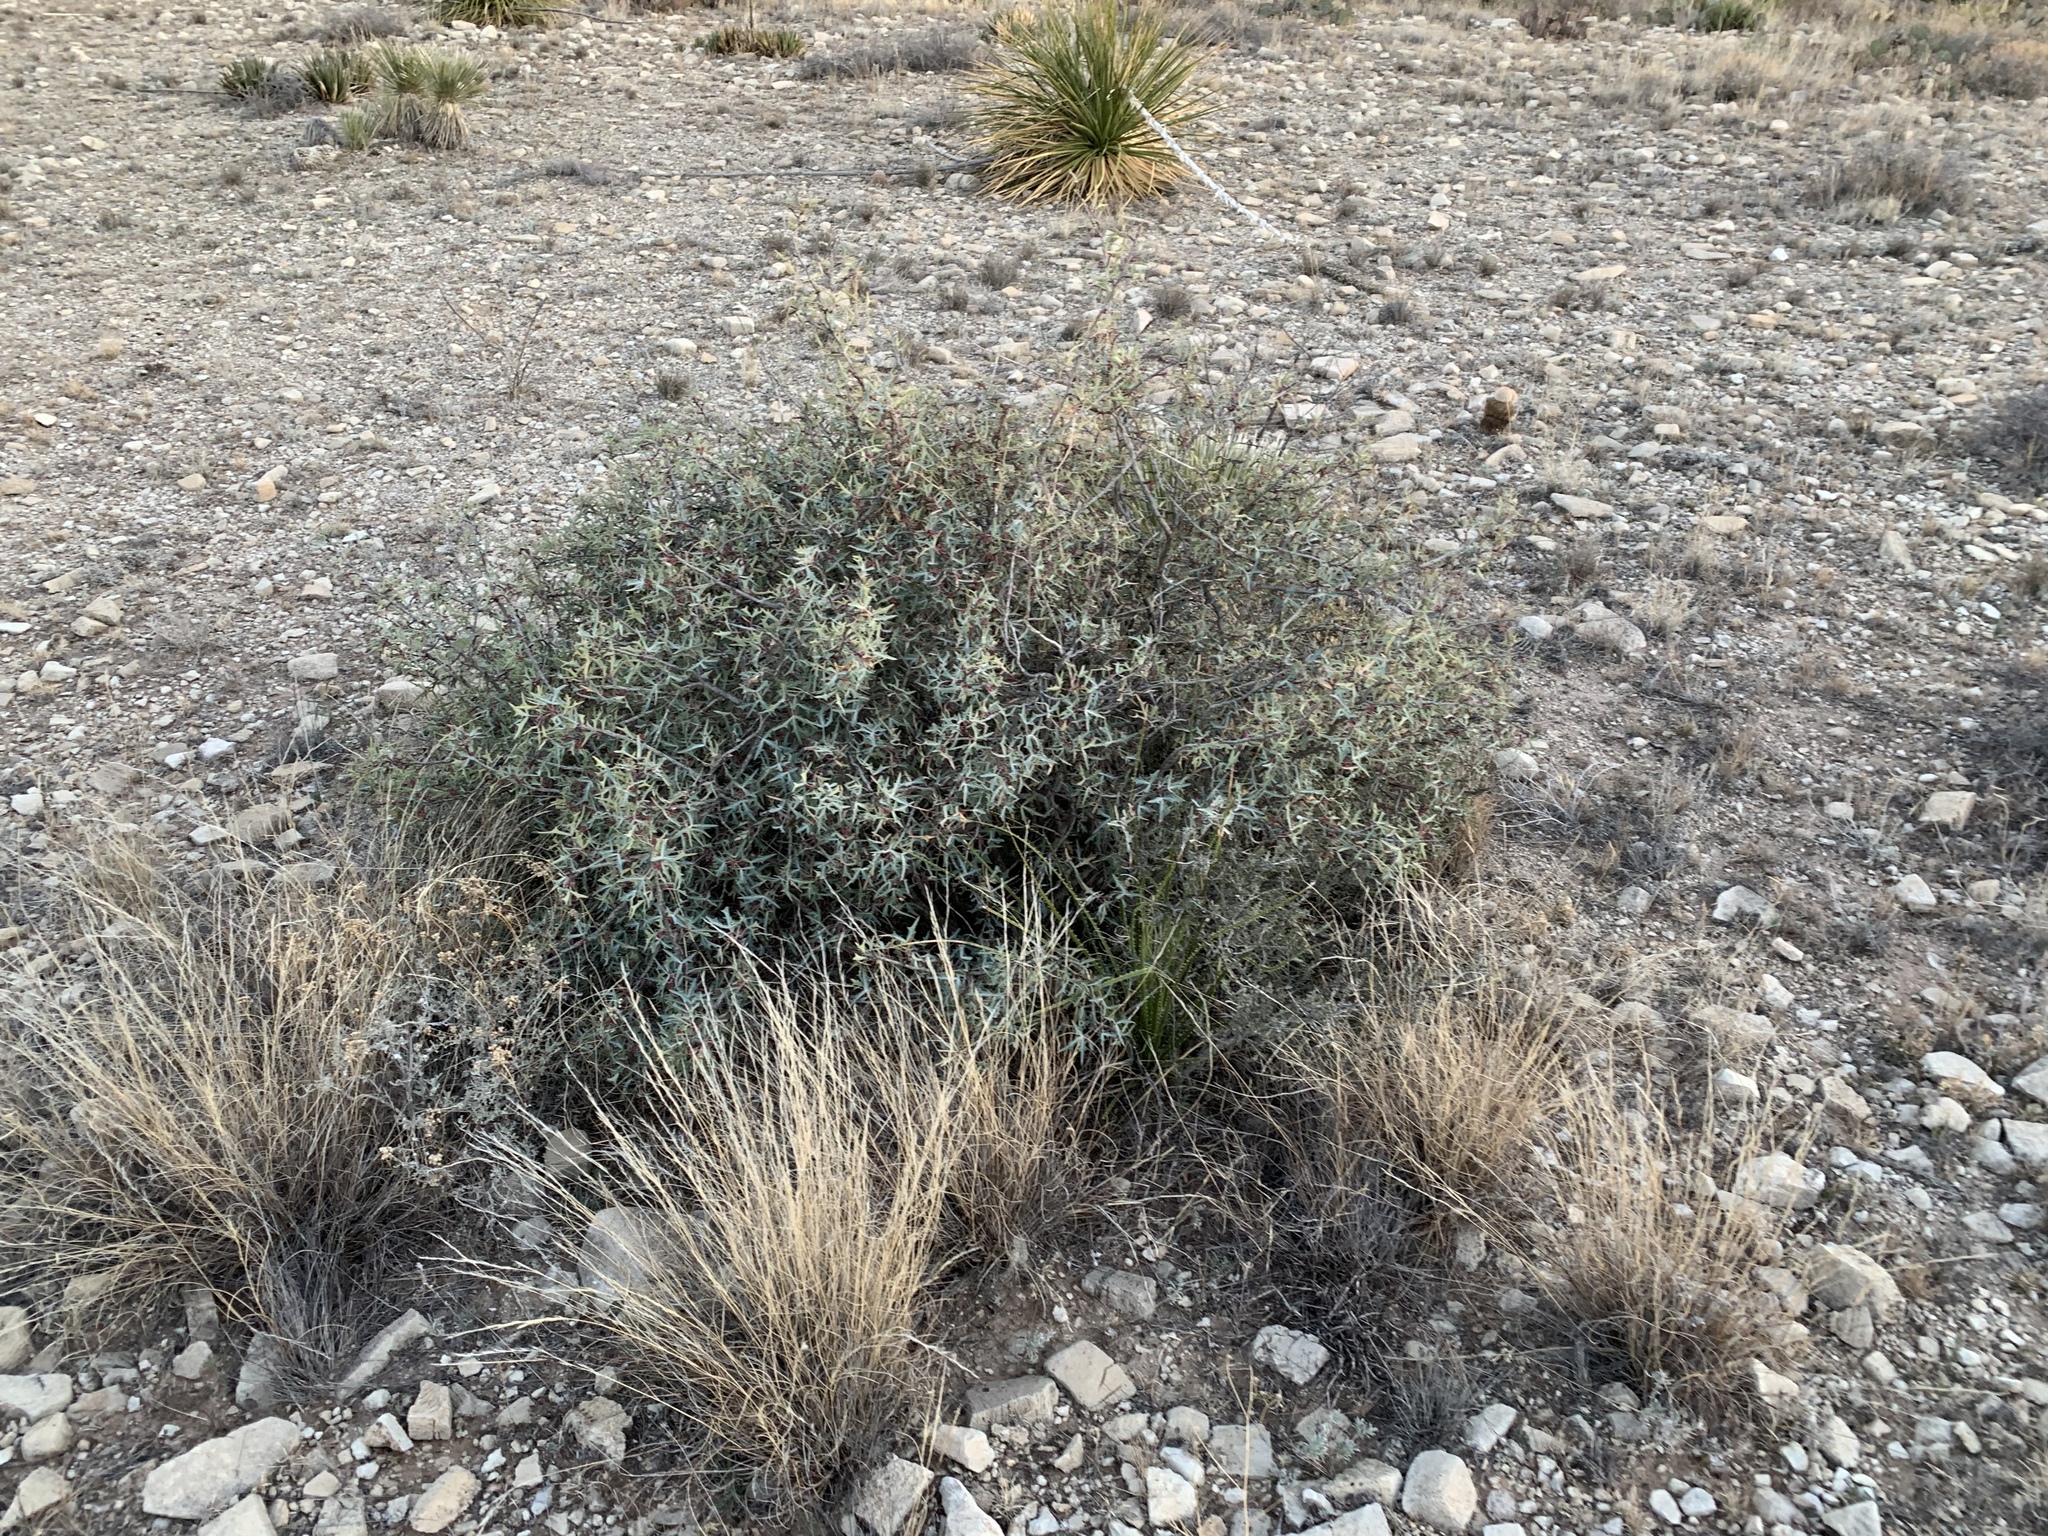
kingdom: Plantae
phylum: Tracheophyta
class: Magnoliopsida
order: Ranunculales
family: Berberidaceae
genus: Alloberberis
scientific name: Alloberberis trifoliolata
